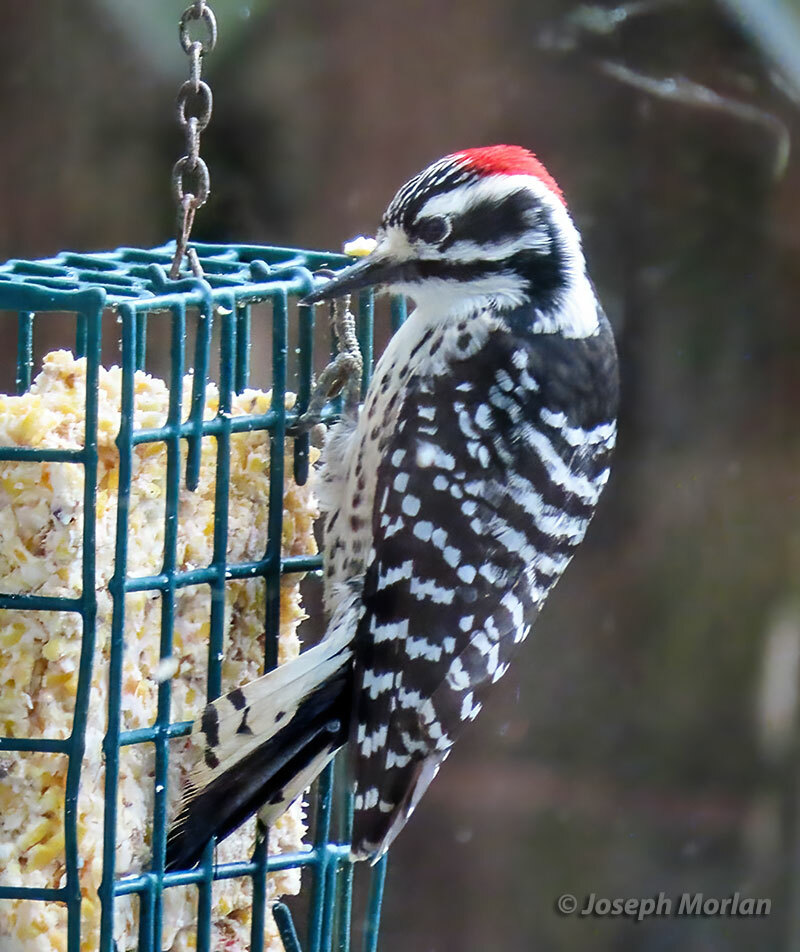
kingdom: Animalia
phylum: Chordata
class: Aves
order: Piciformes
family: Picidae
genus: Dryobates
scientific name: Dryobates nuttallii
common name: Nuttall's woodpecker
